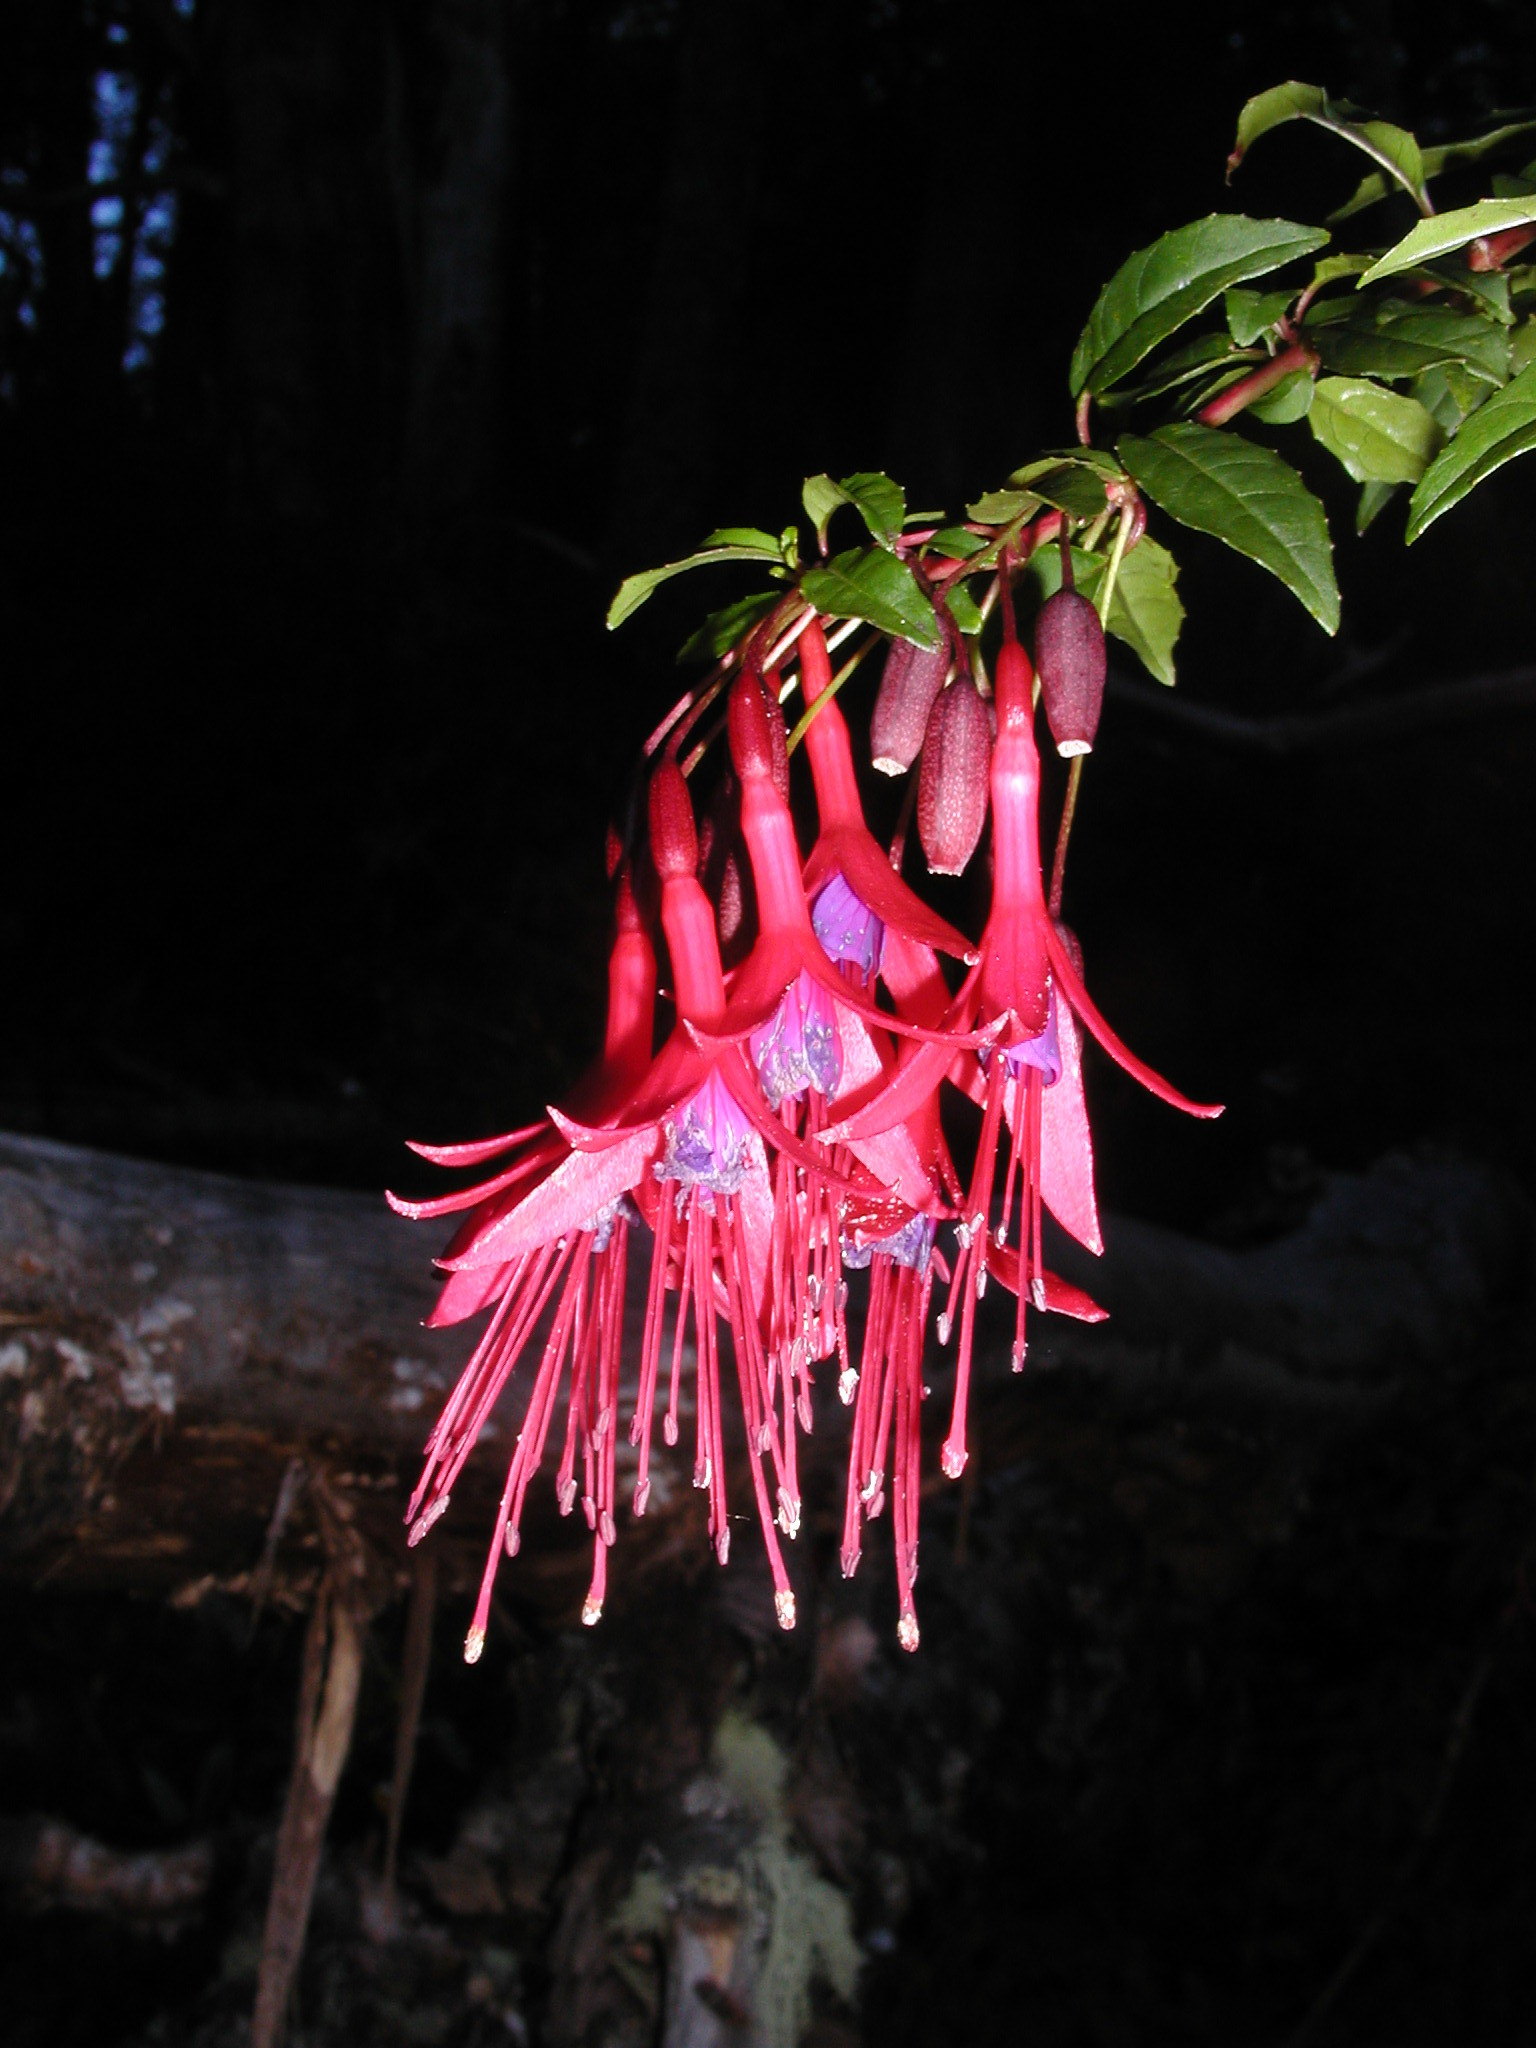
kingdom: Plantae
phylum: Tracheophyta
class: Magnoliopsida
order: Myrtales
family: Onagraceae
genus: Fuchsia
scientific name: Fuchsia magellanica
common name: Hardy fuchsia
